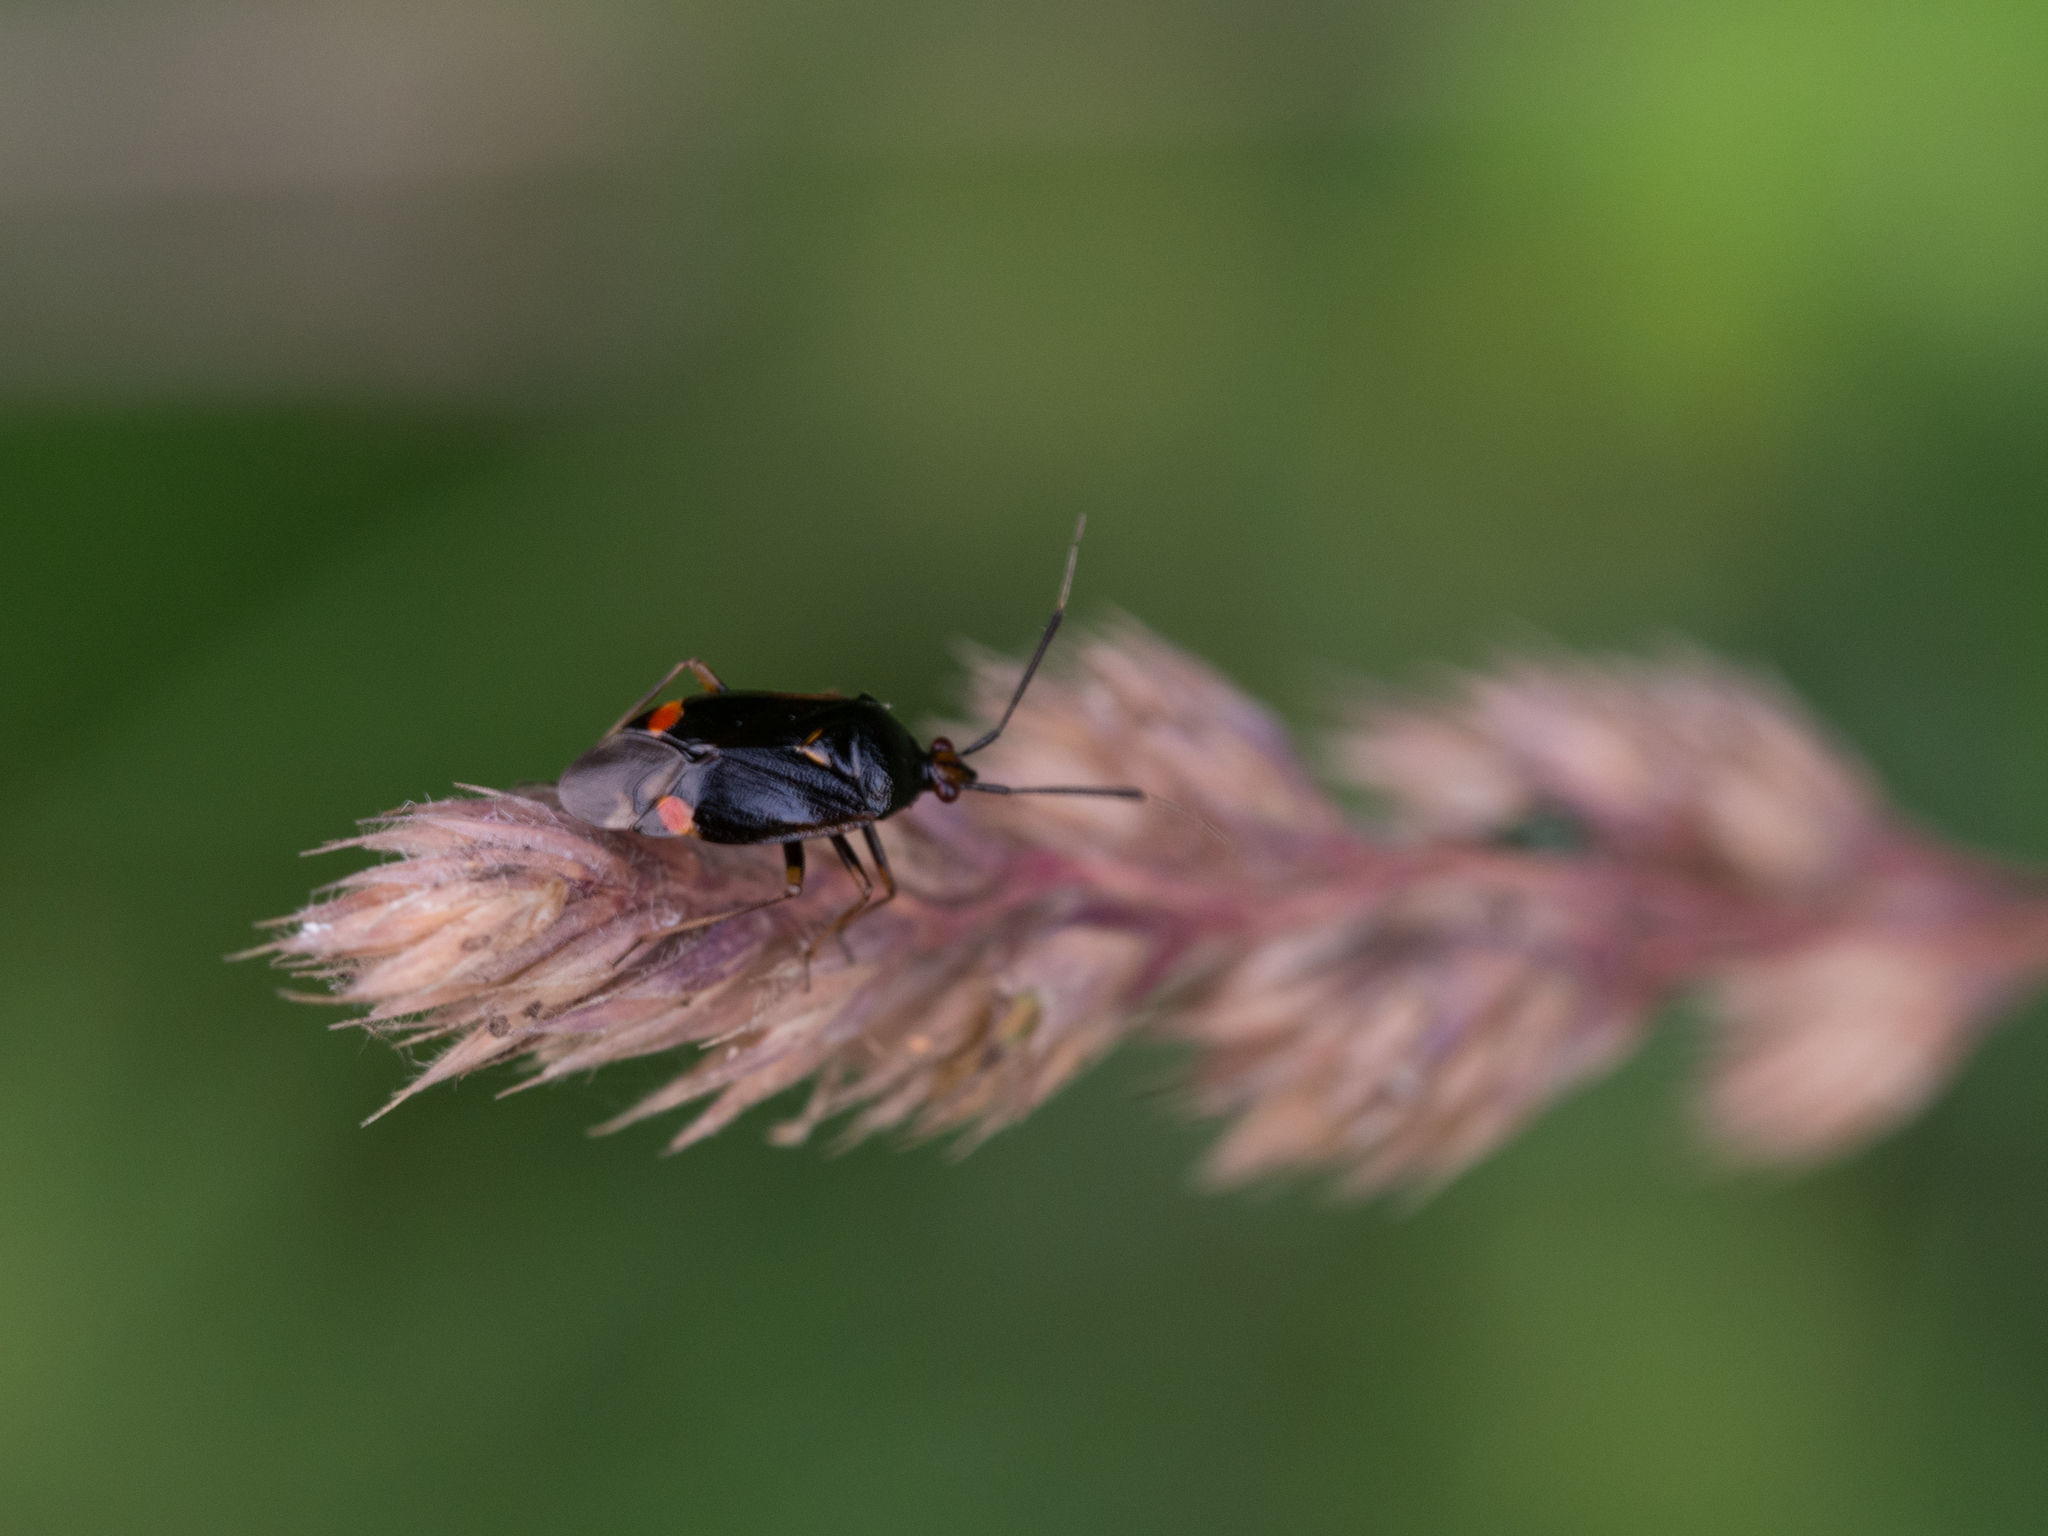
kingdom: Animalia
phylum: Arthropoda
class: Insecta
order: Hemiptera
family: Miridae
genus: Deraeocoris
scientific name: Deraeocoris ruber
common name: Plant bug
